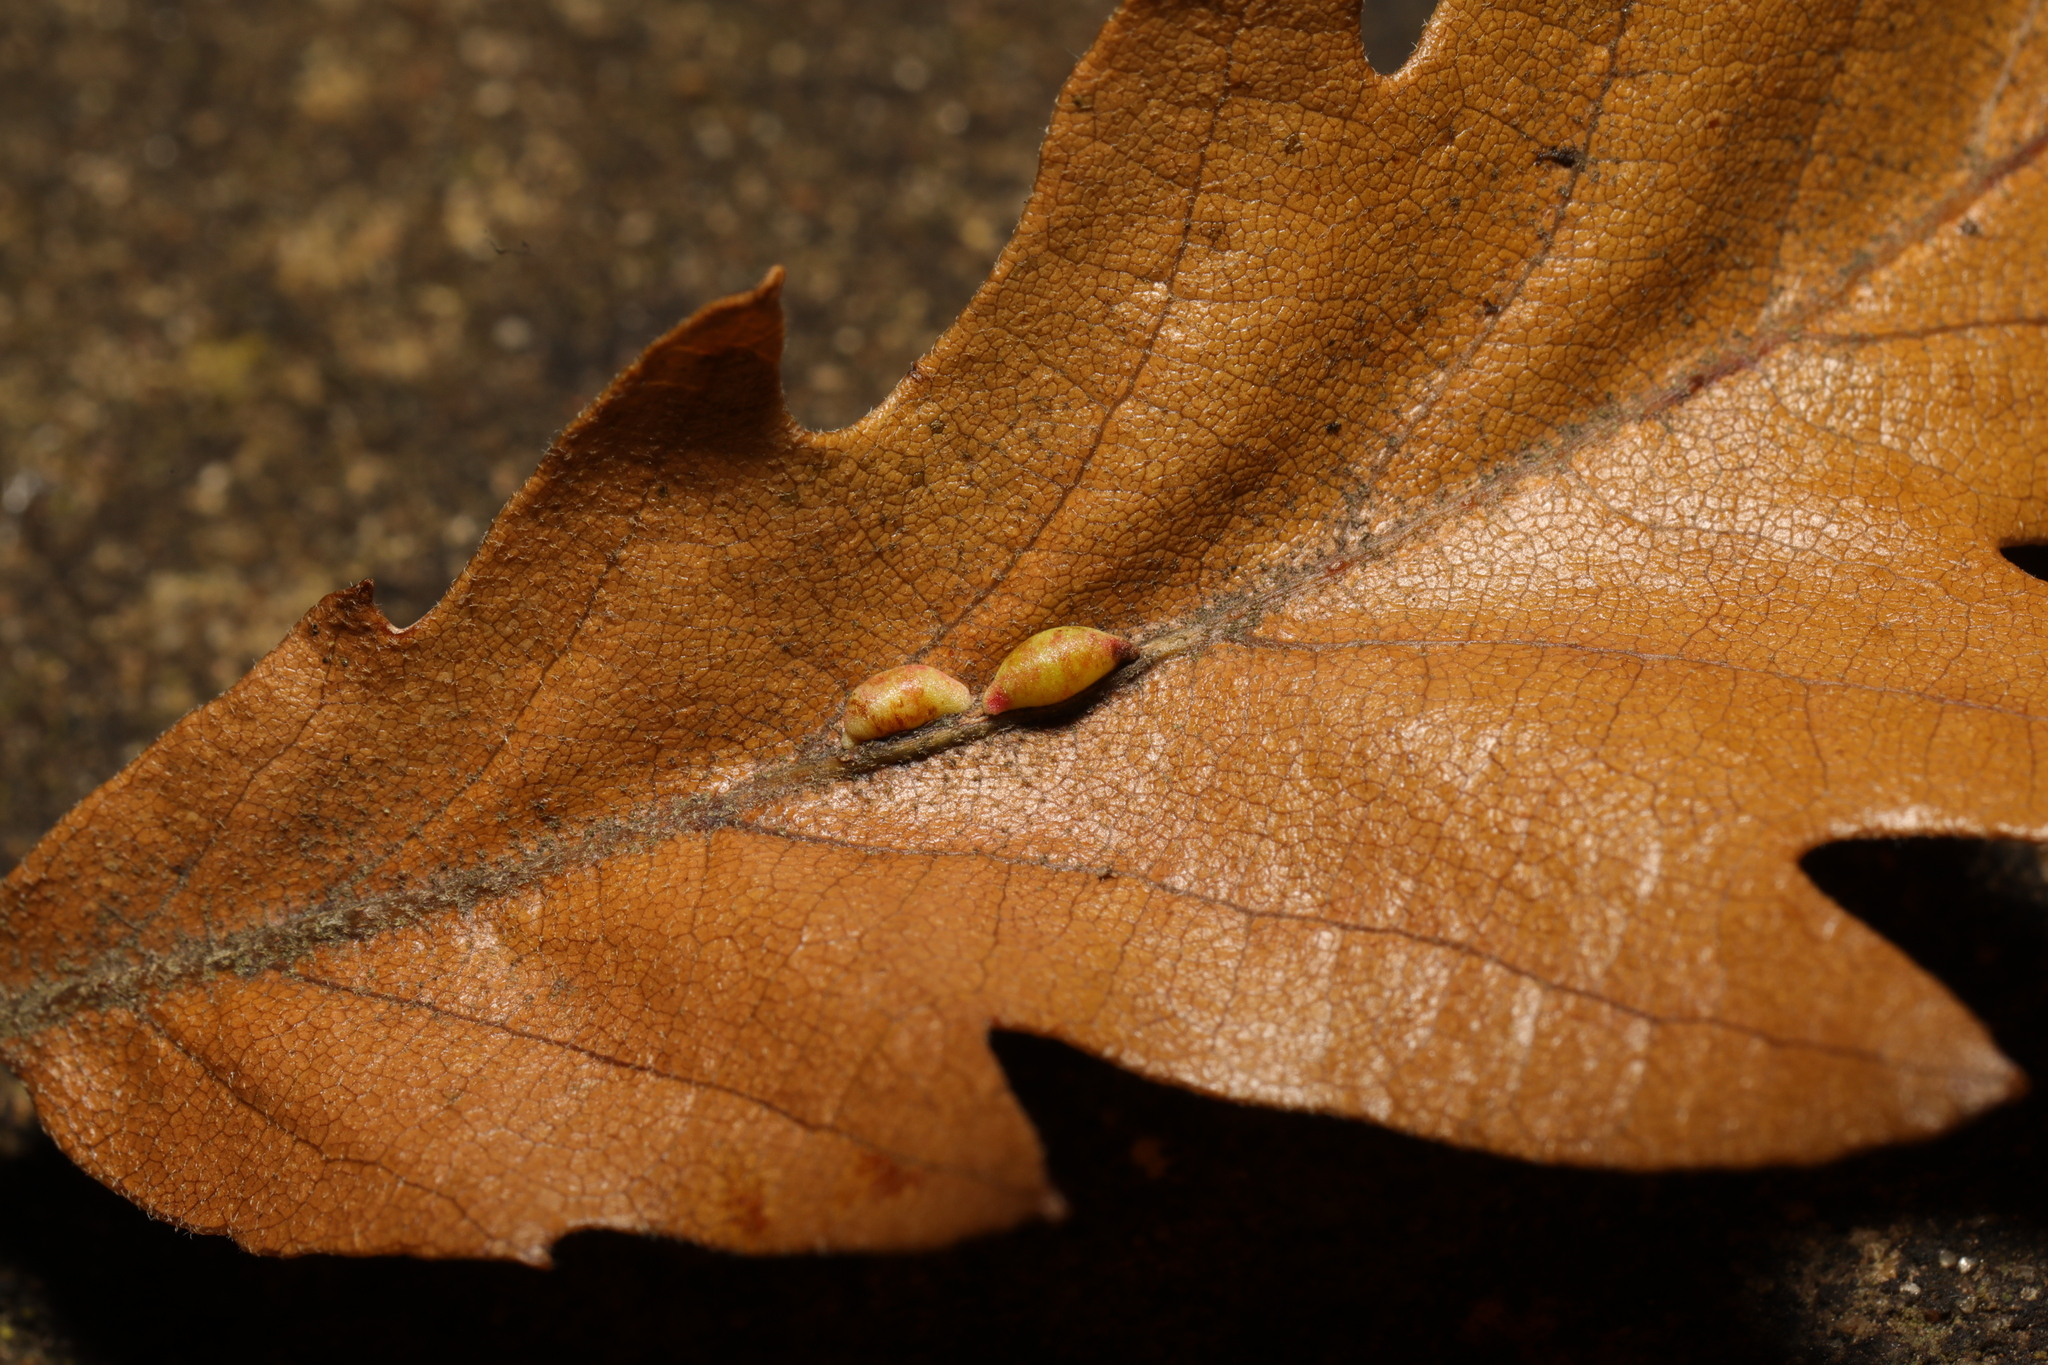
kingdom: Animalia
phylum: Arthropoda
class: Insecta
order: Hymenoptera
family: Cynipidae
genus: Neuroterus
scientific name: Neuroterus saliens
